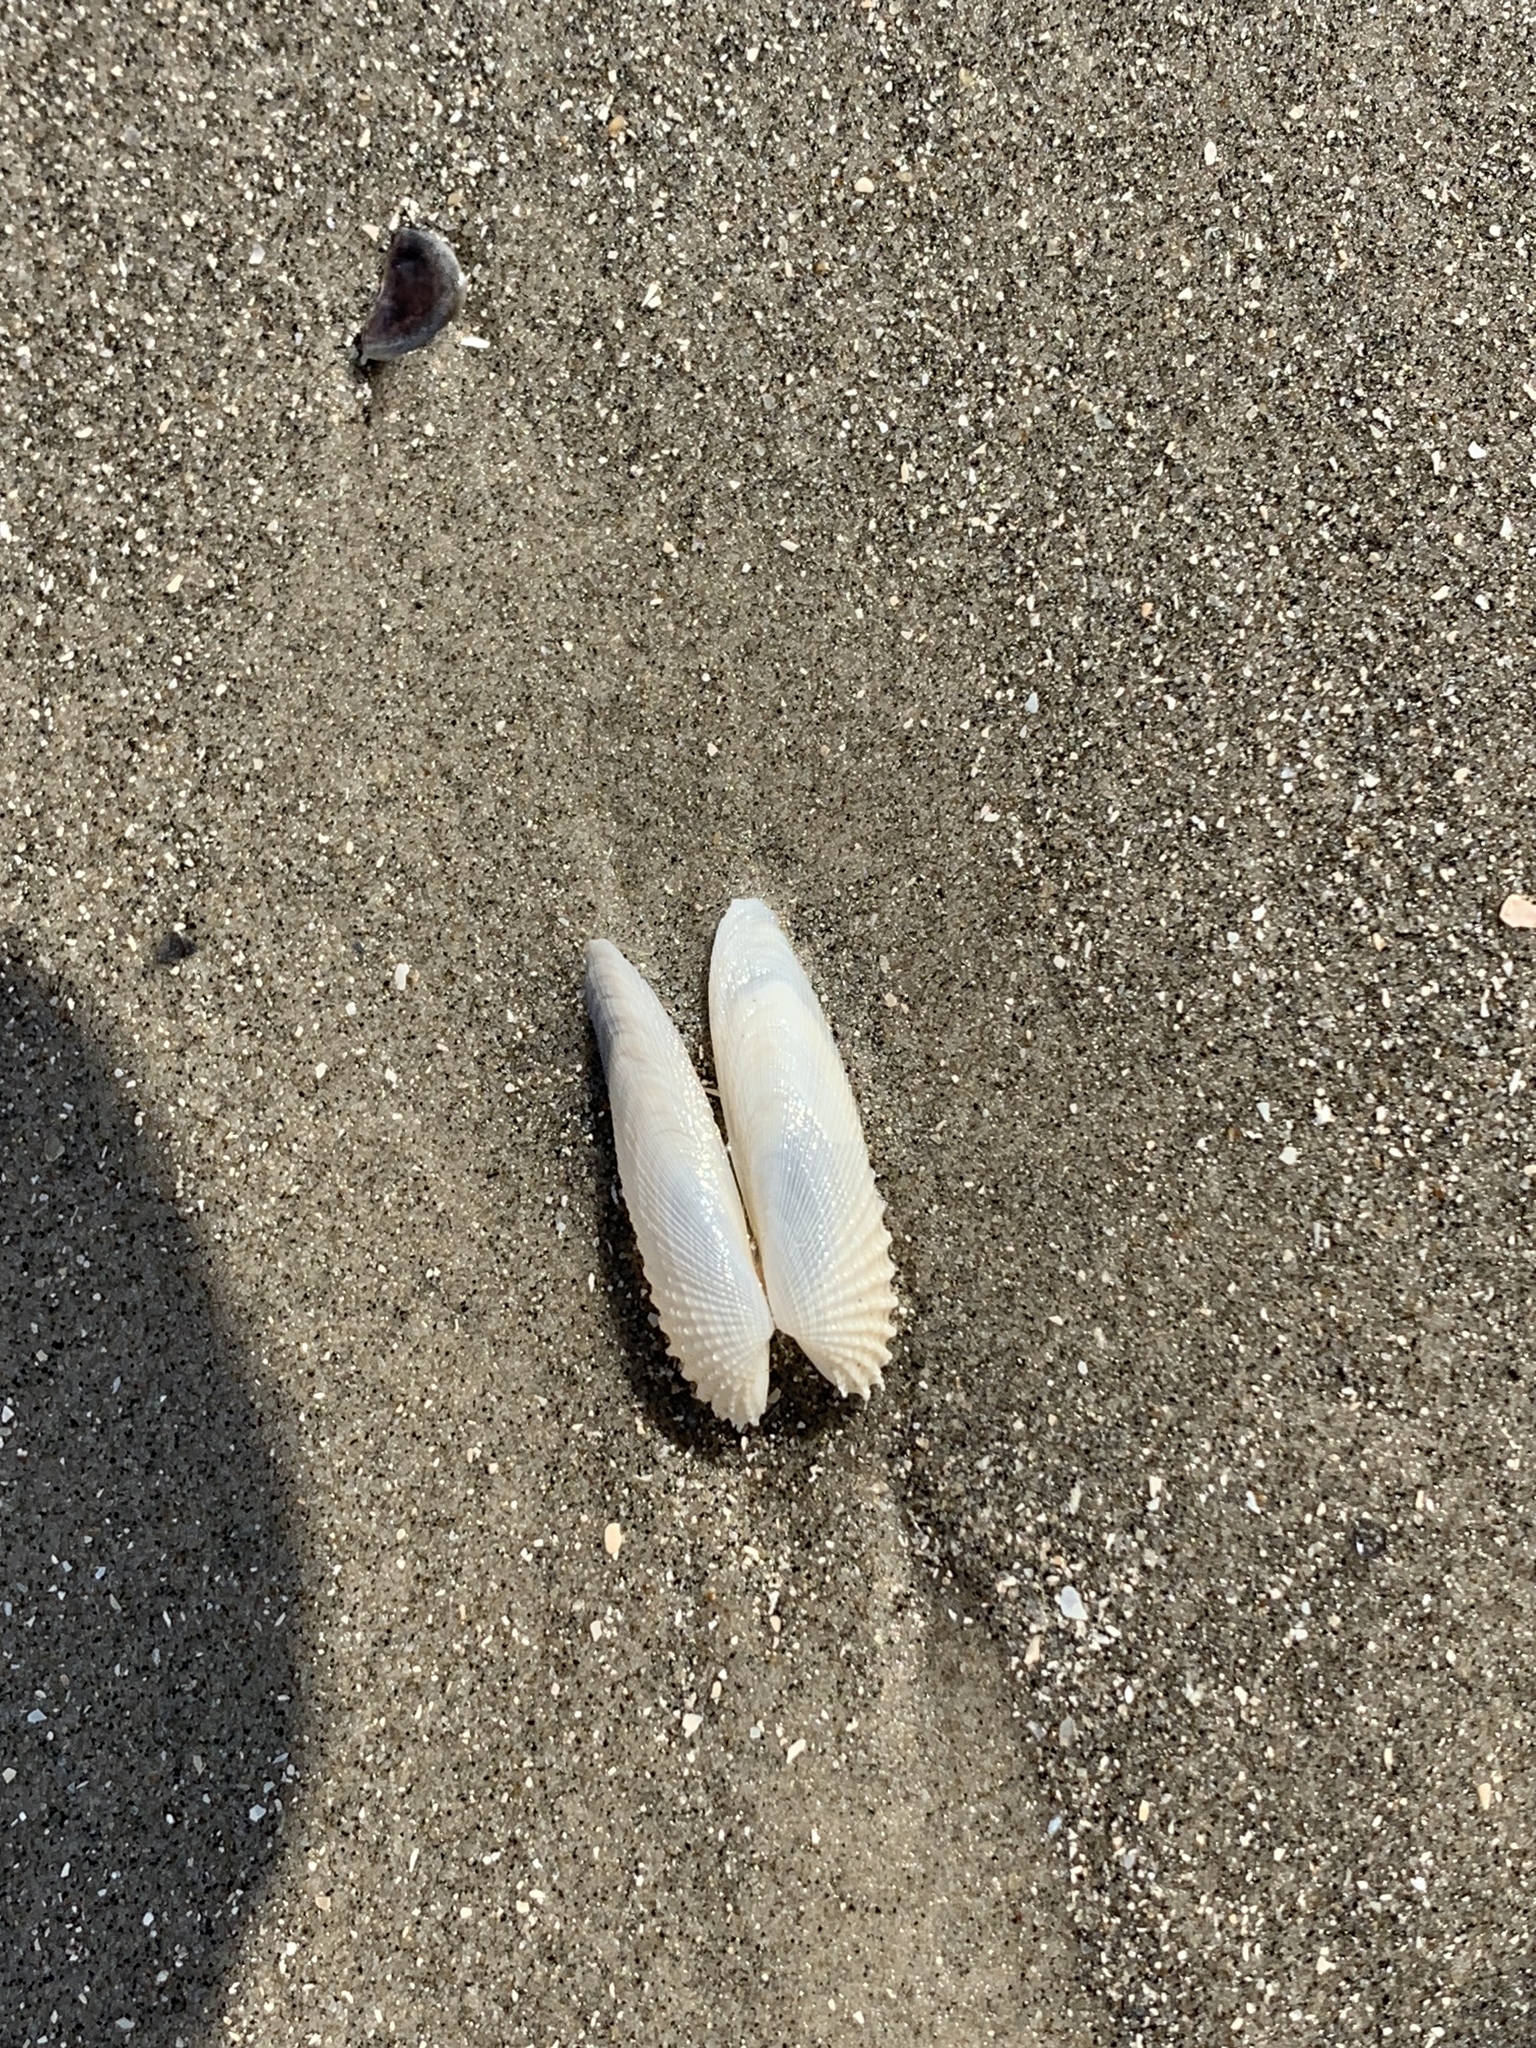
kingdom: Animalia
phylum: Mollusca
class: Bivalvia
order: Venerida
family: Veneridae
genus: Petricolaria
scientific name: Petricolaria pholadiformis
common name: American piddock
